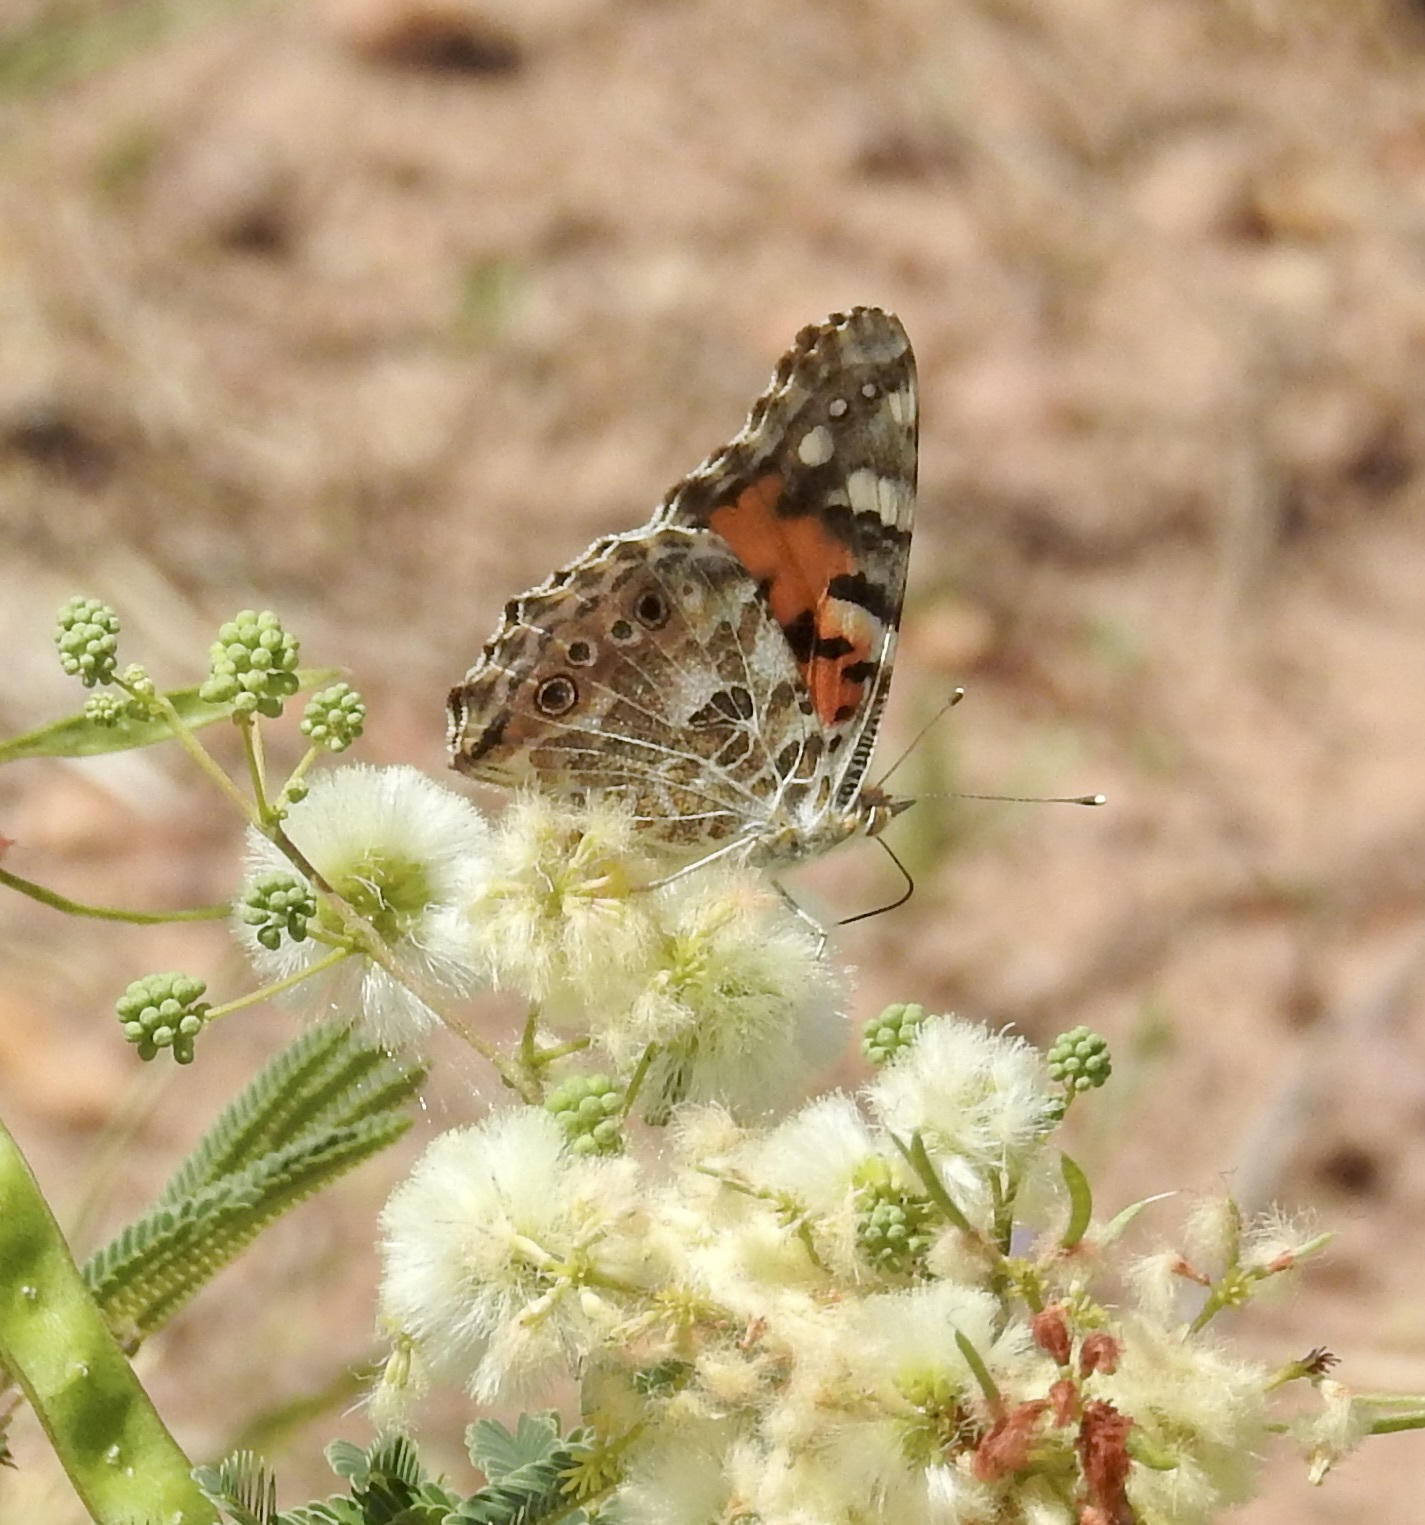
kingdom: Animalia
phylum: Arthropoda
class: Insecta
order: Lepidoptera
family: Nymphalidae
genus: Vanessa
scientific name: Vanessa cardui
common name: Painted lady
